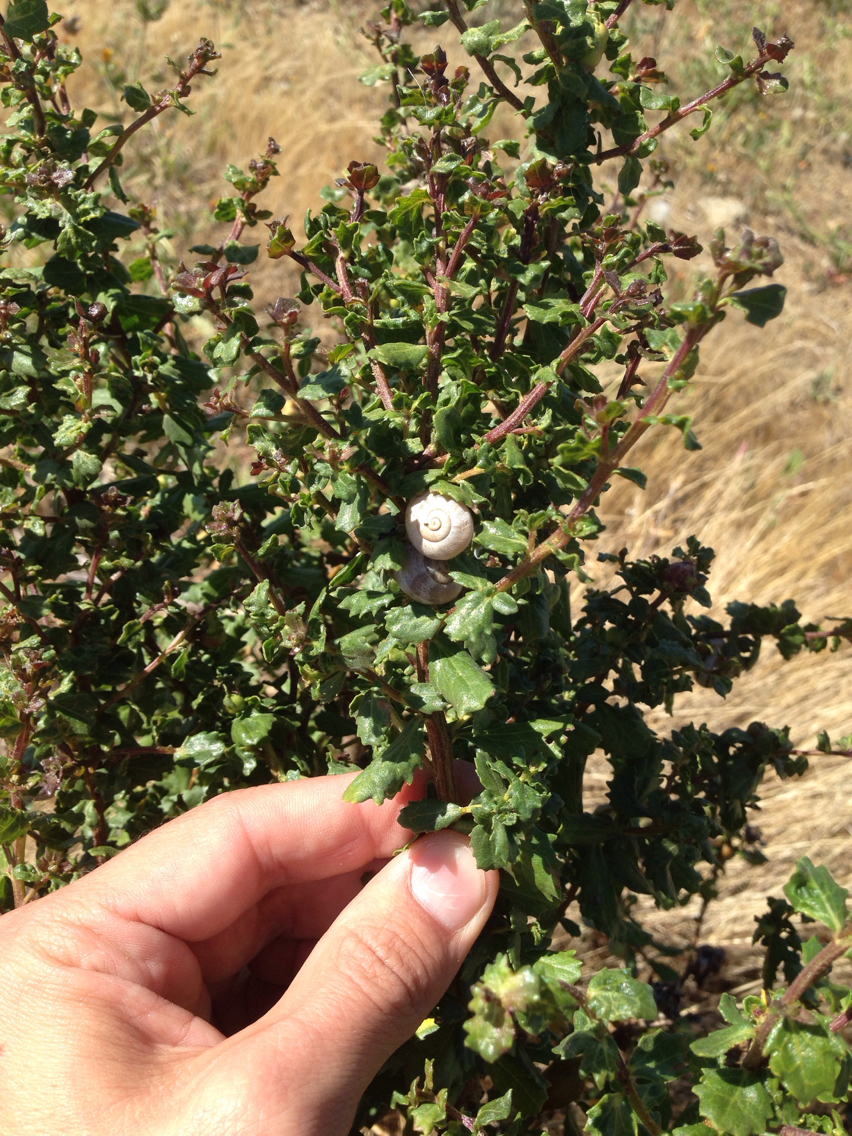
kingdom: Plantae
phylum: Tracheophyta
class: Magnoliopsida
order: Asterales
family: Asteraceae
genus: Baccharis
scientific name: Baccharis pilularis
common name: Coyotebrush
